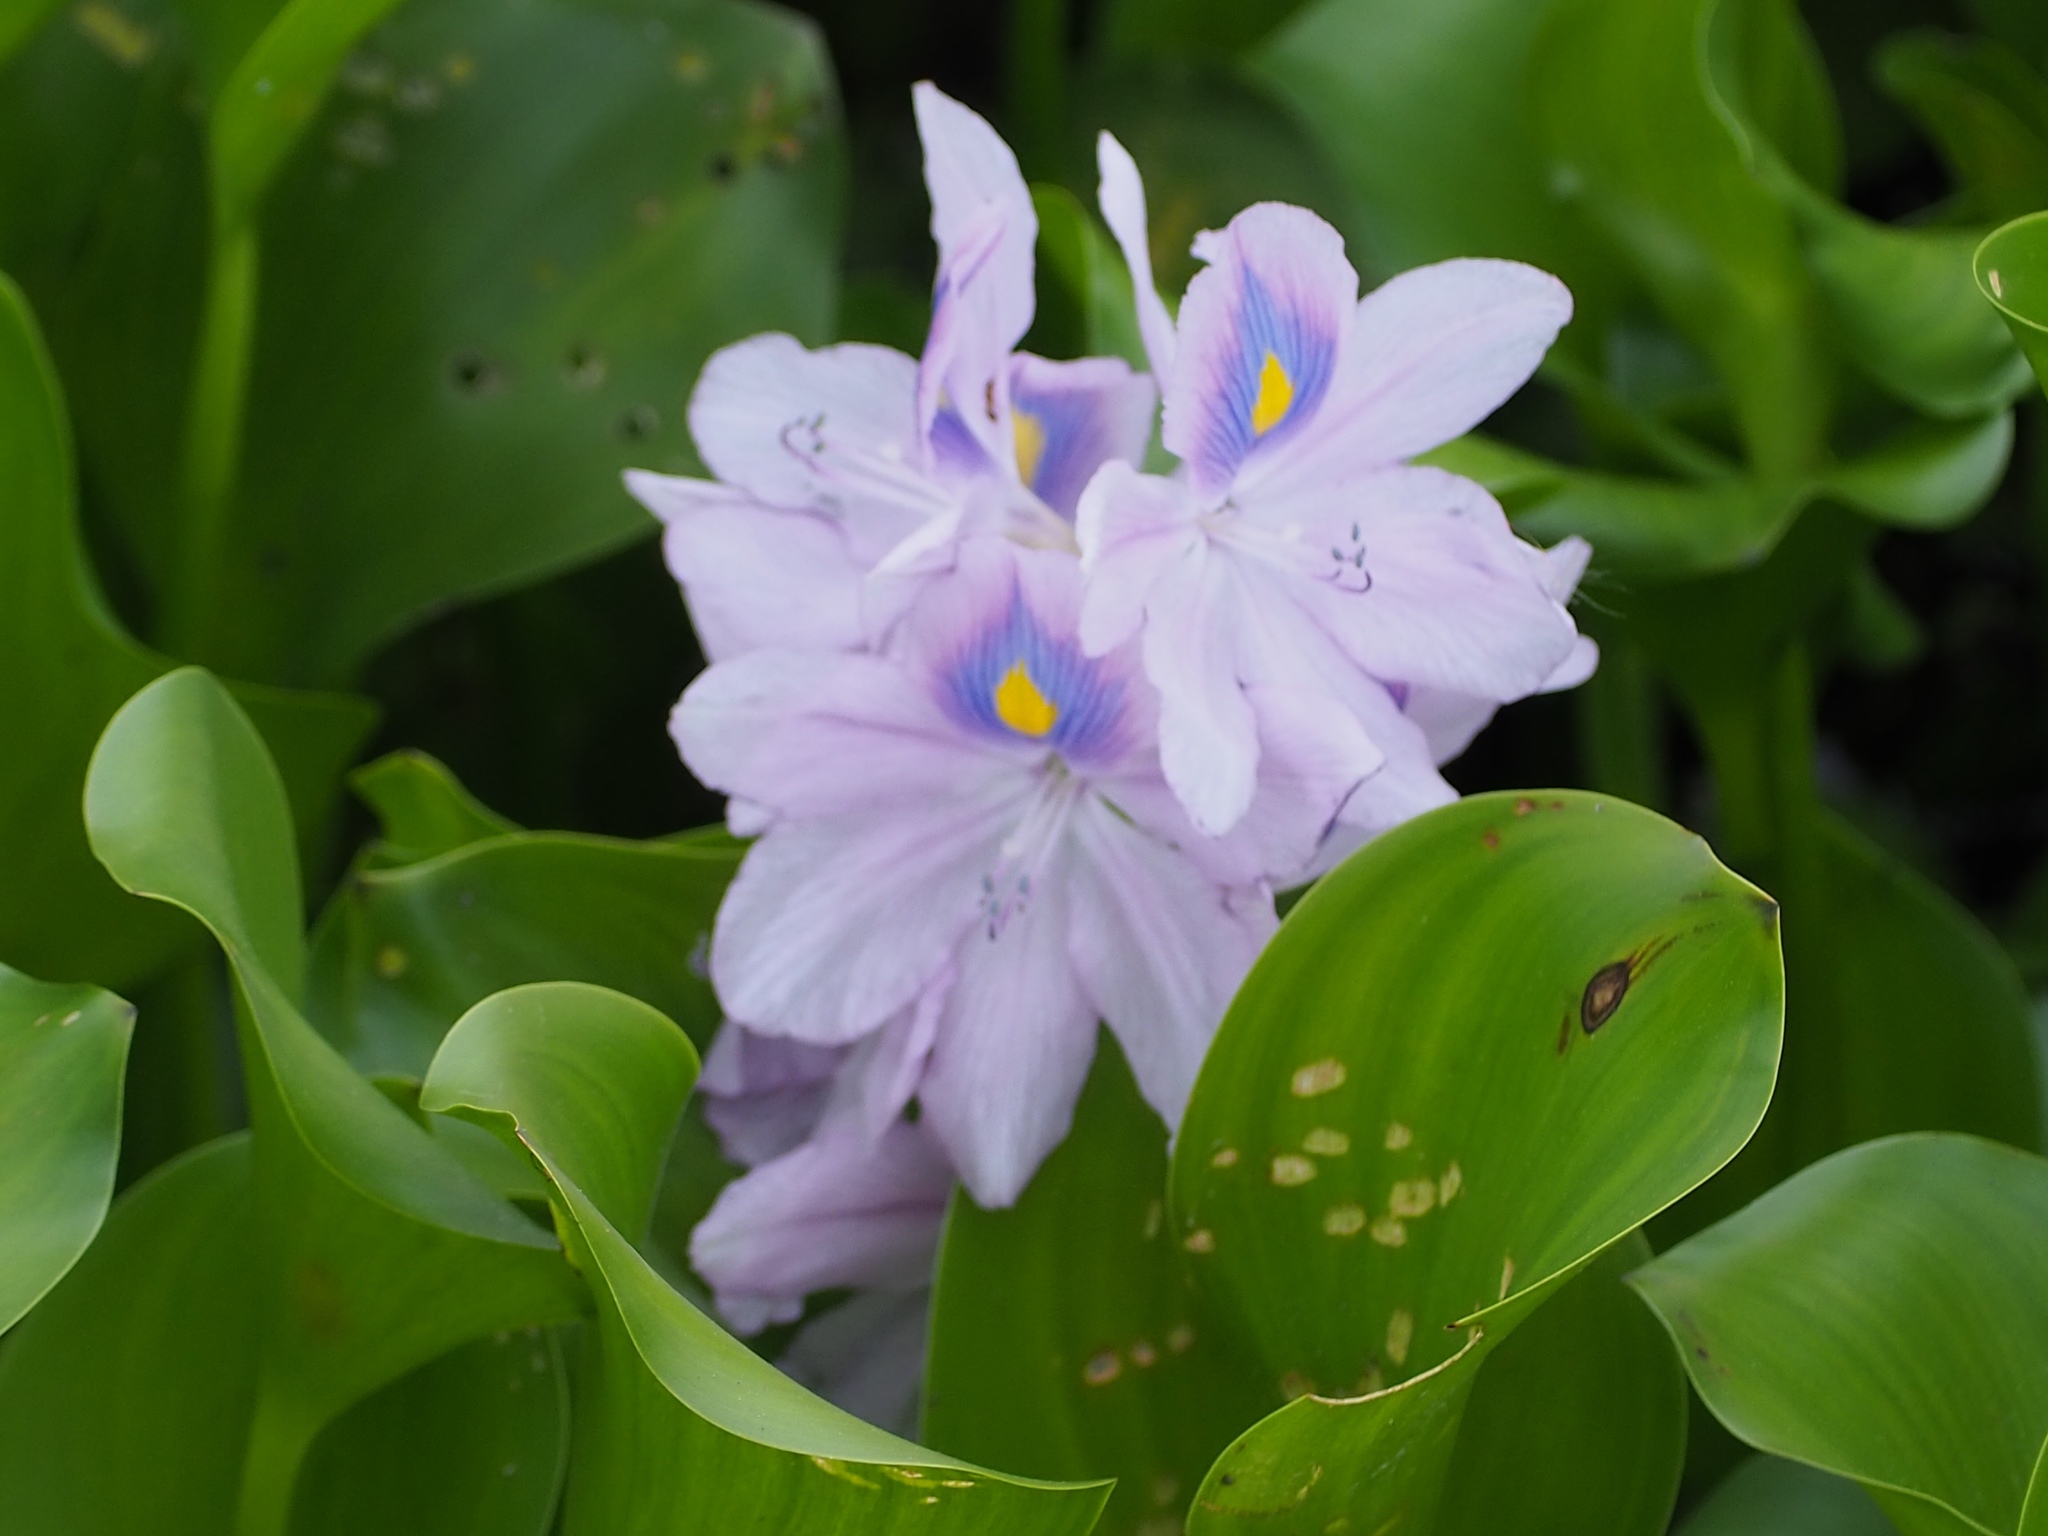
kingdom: Plantae
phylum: Tracheophyta
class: Liliopsida
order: Commelinales
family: Pontederiaceae
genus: Pontederia
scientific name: Pontederia crassipes
